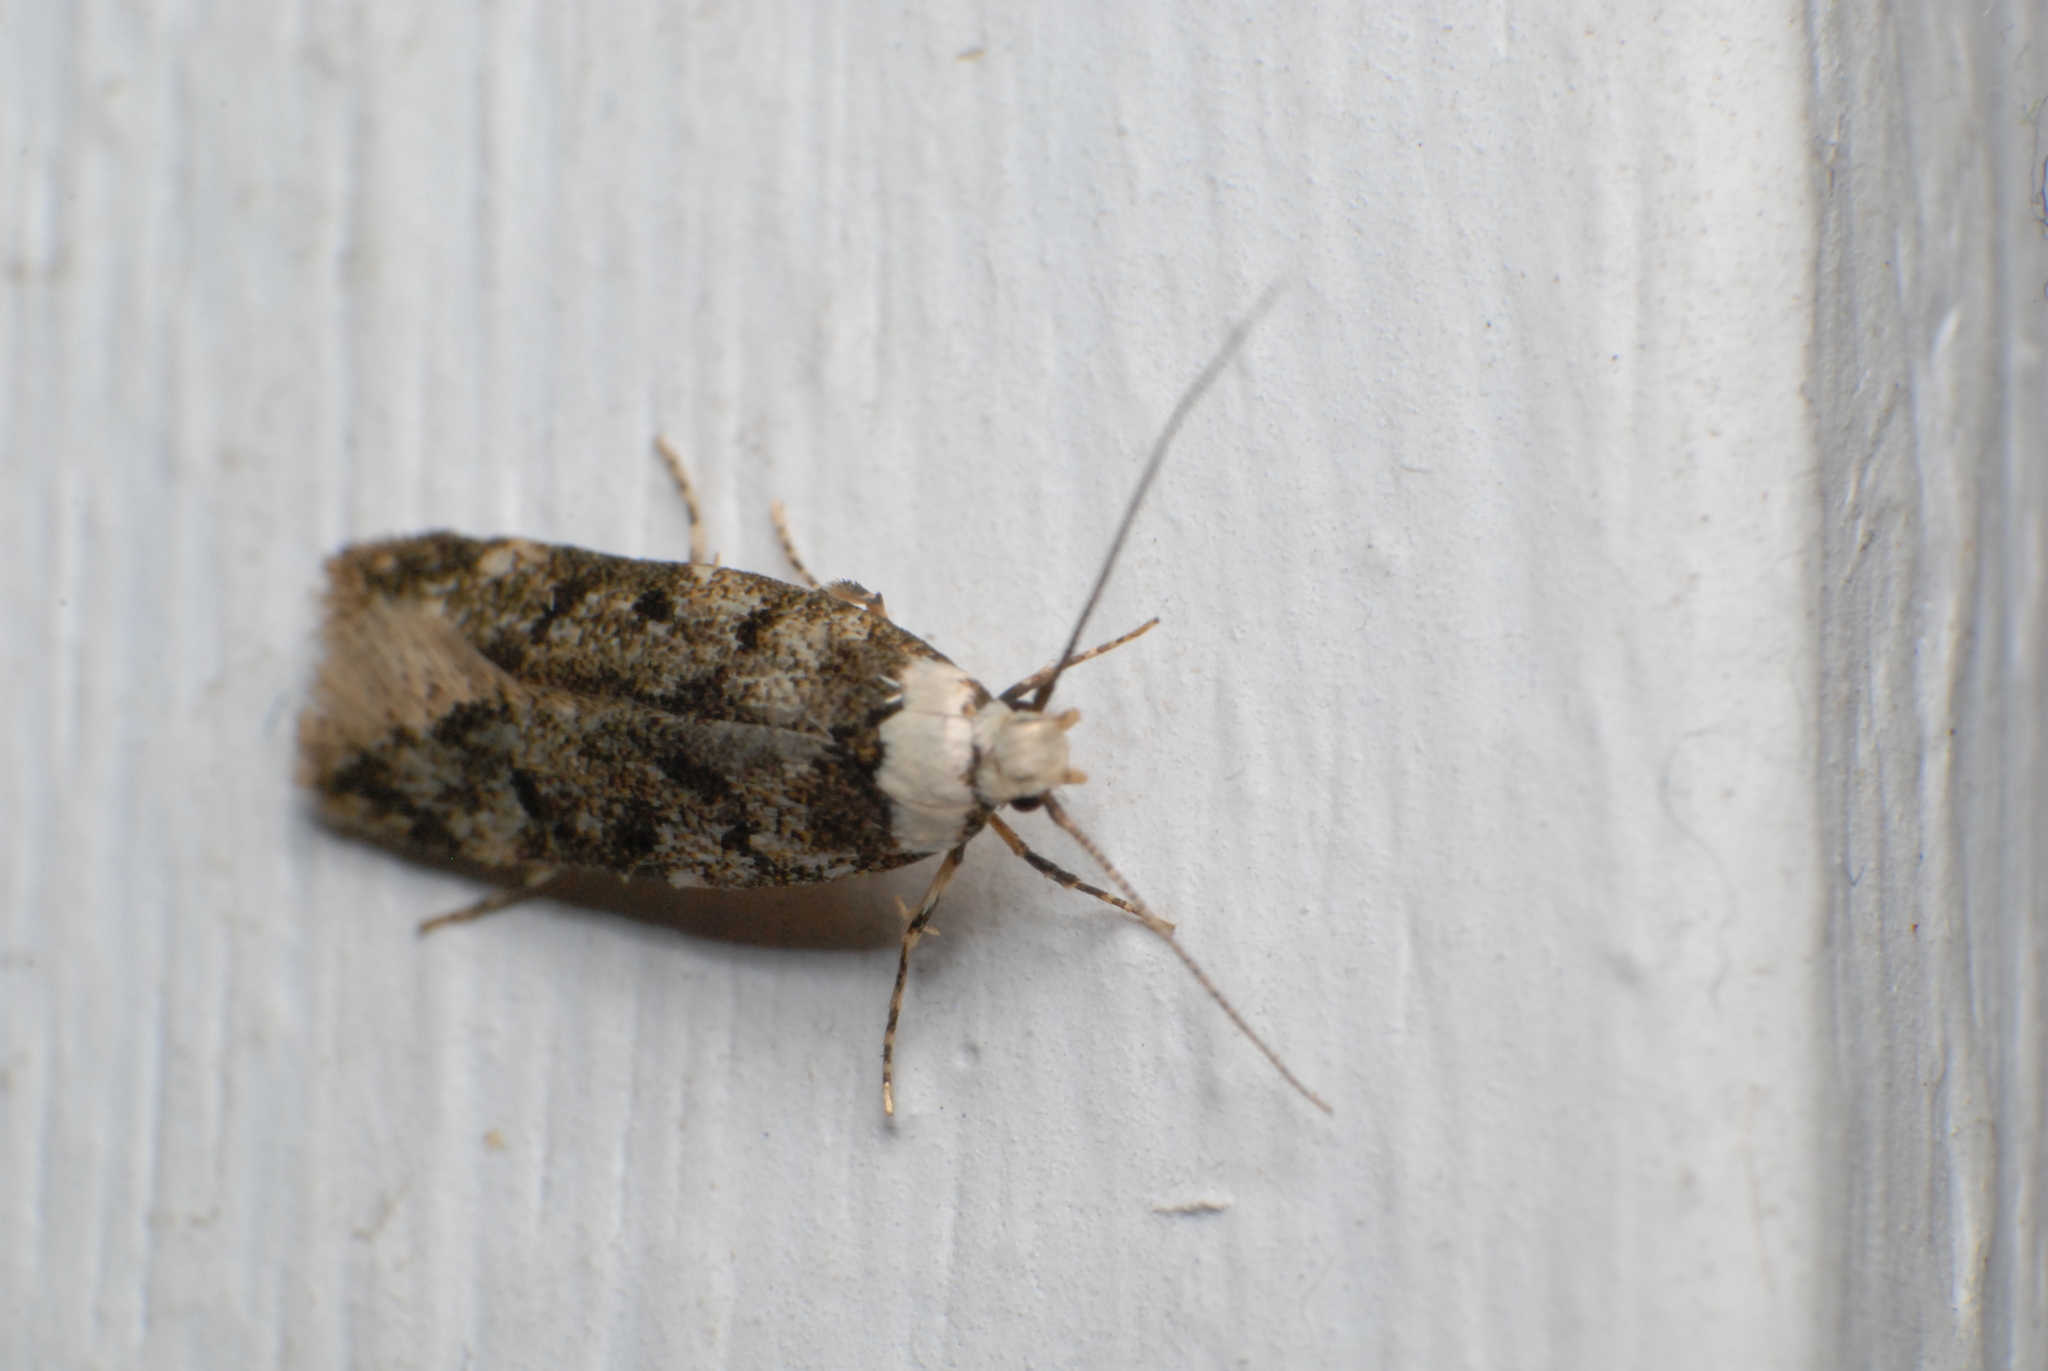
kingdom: Animalia
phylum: Arthropoda
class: Insecta
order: Lepidoptera
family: Oecophoridae
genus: Endrosis
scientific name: Endrosis sarcitrella
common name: White-shouldered house moth
